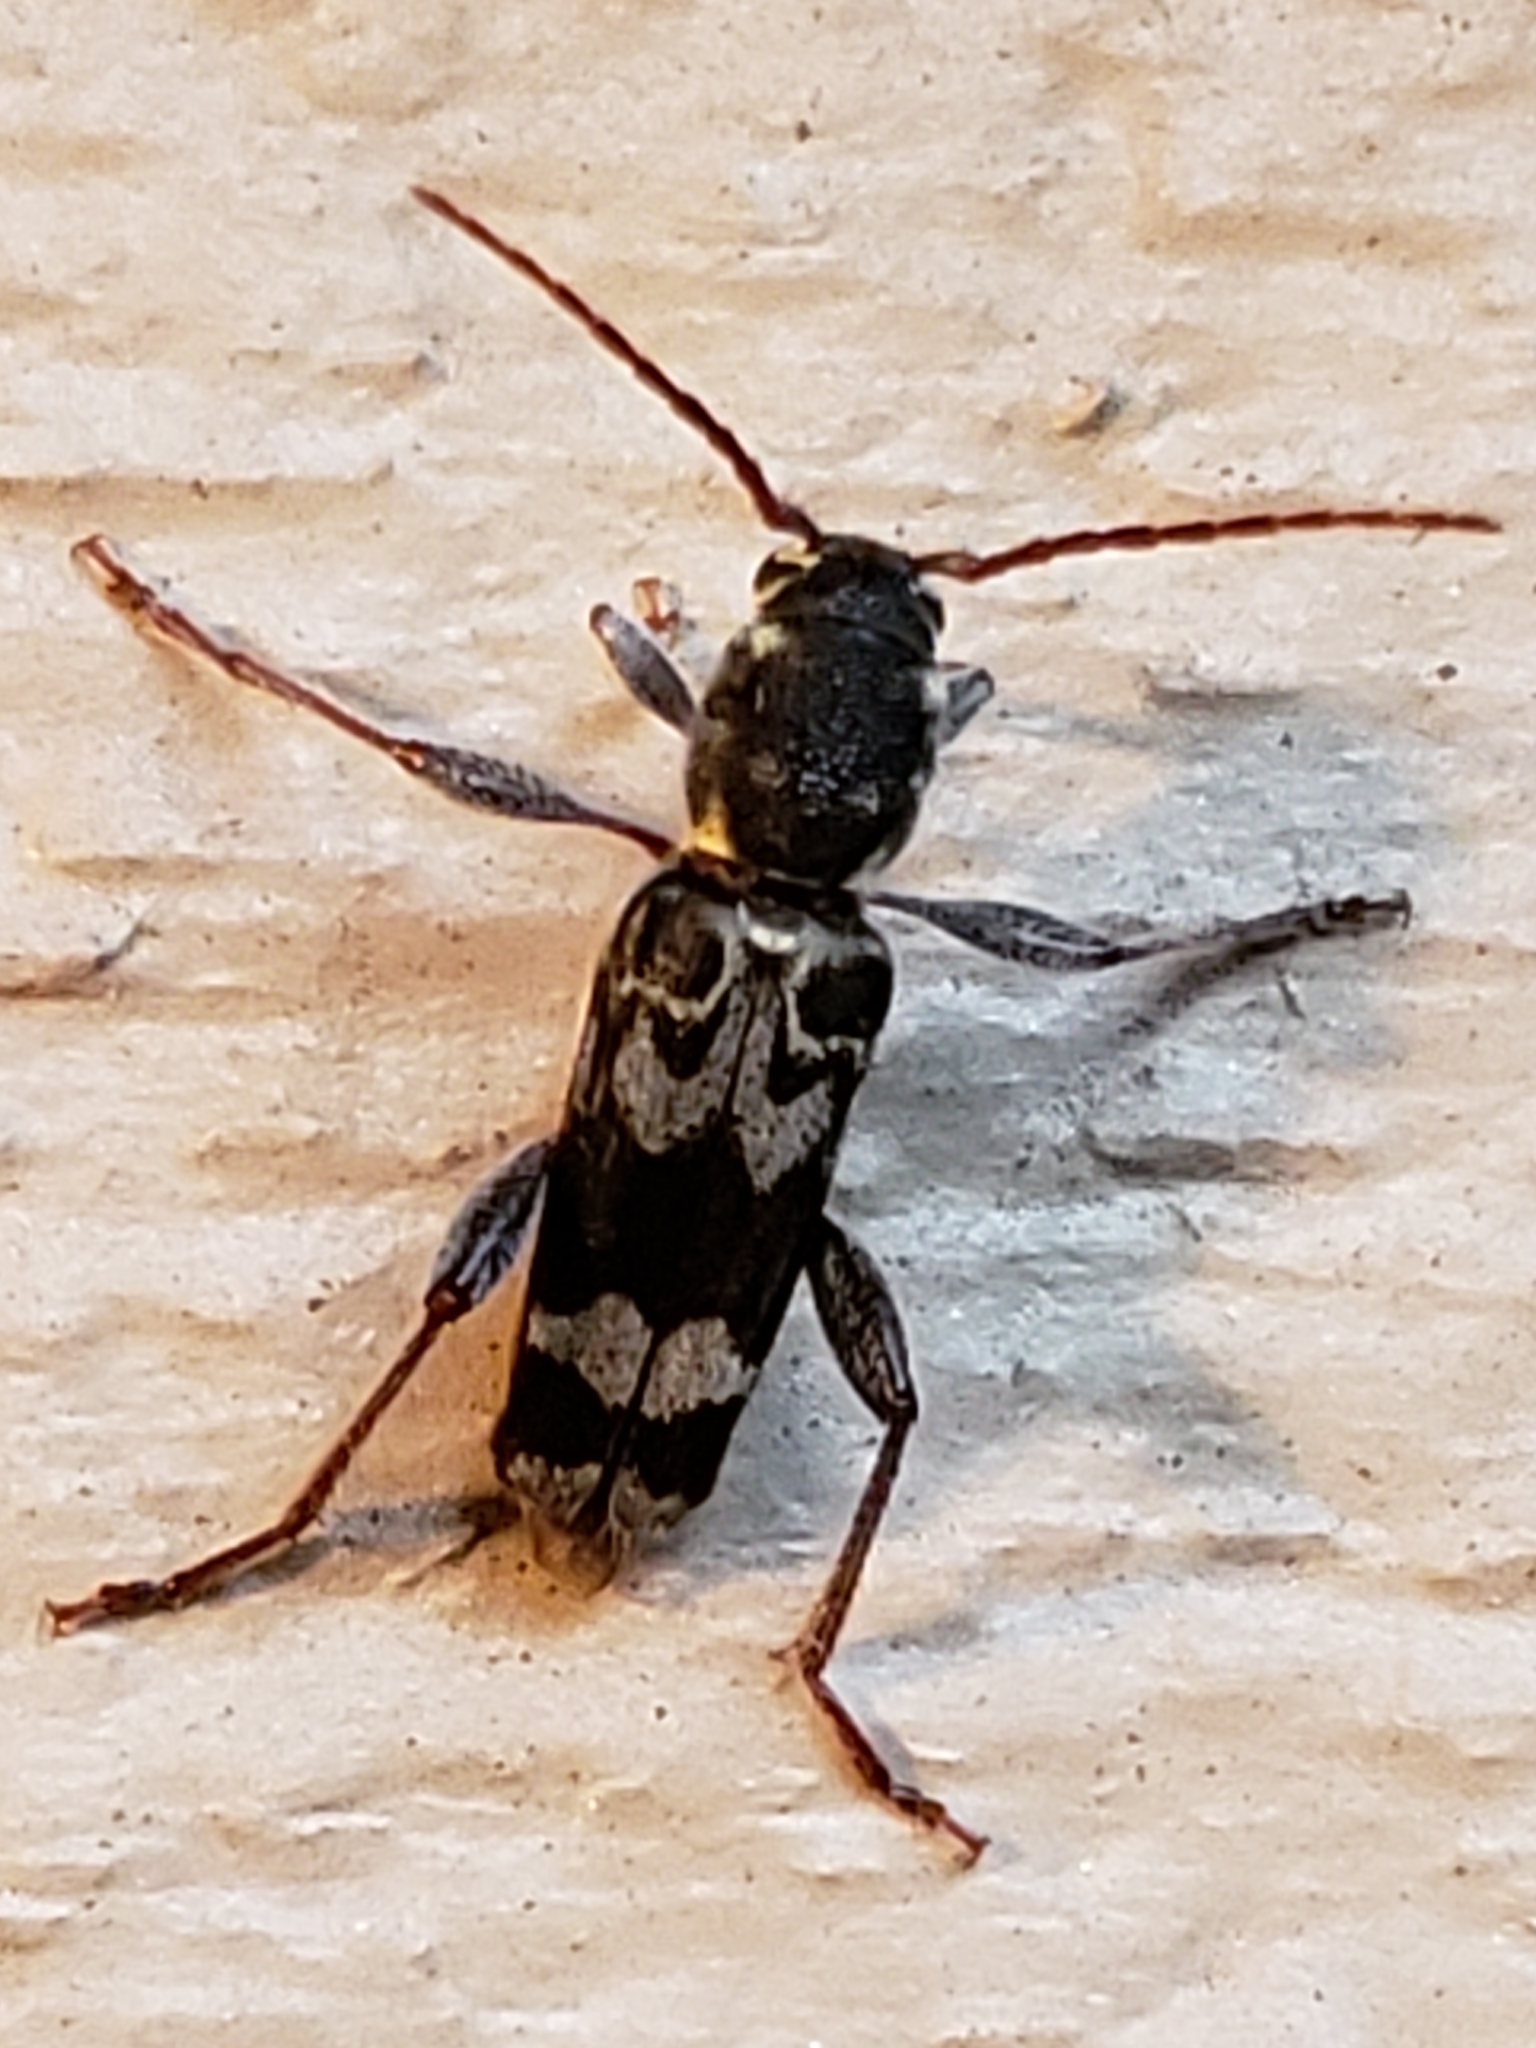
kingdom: Animalia
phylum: Arthropoda
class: Insecta
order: Coleoptera
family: Cerambycidae
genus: Xylotrechus
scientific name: Xylotrechus colonus
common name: Long-horned beetle
